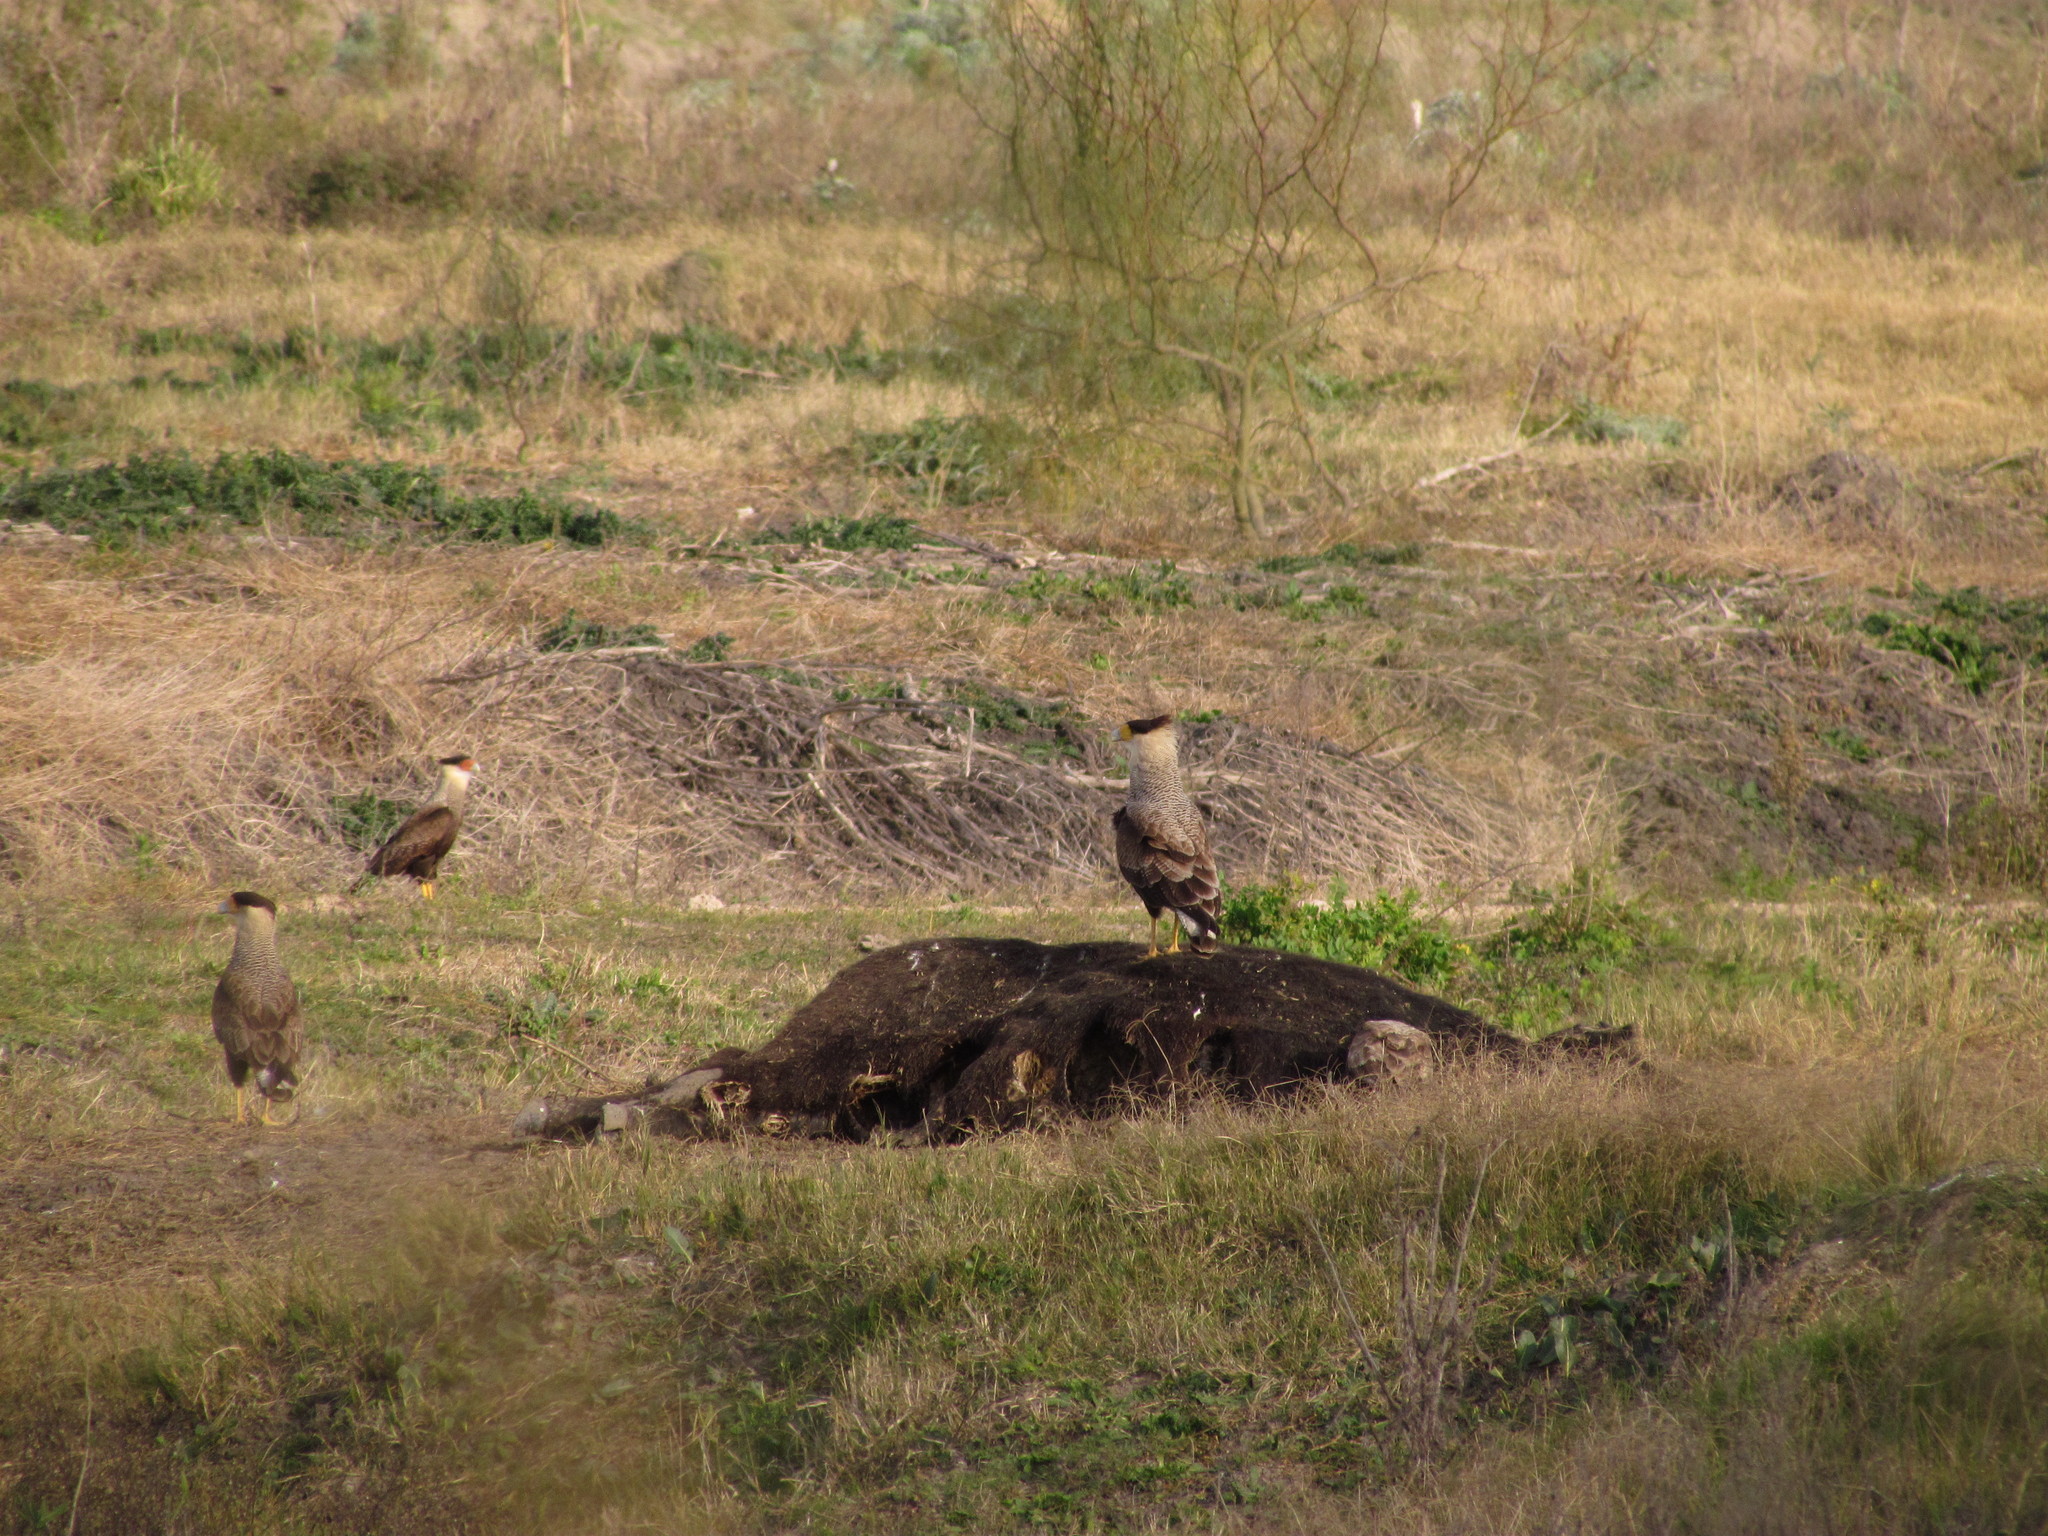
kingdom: Animalia
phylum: Chordata
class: Aves
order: Falconiformes
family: Falconidae
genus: Caracara
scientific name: Caracara plancus
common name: Southern caracara
